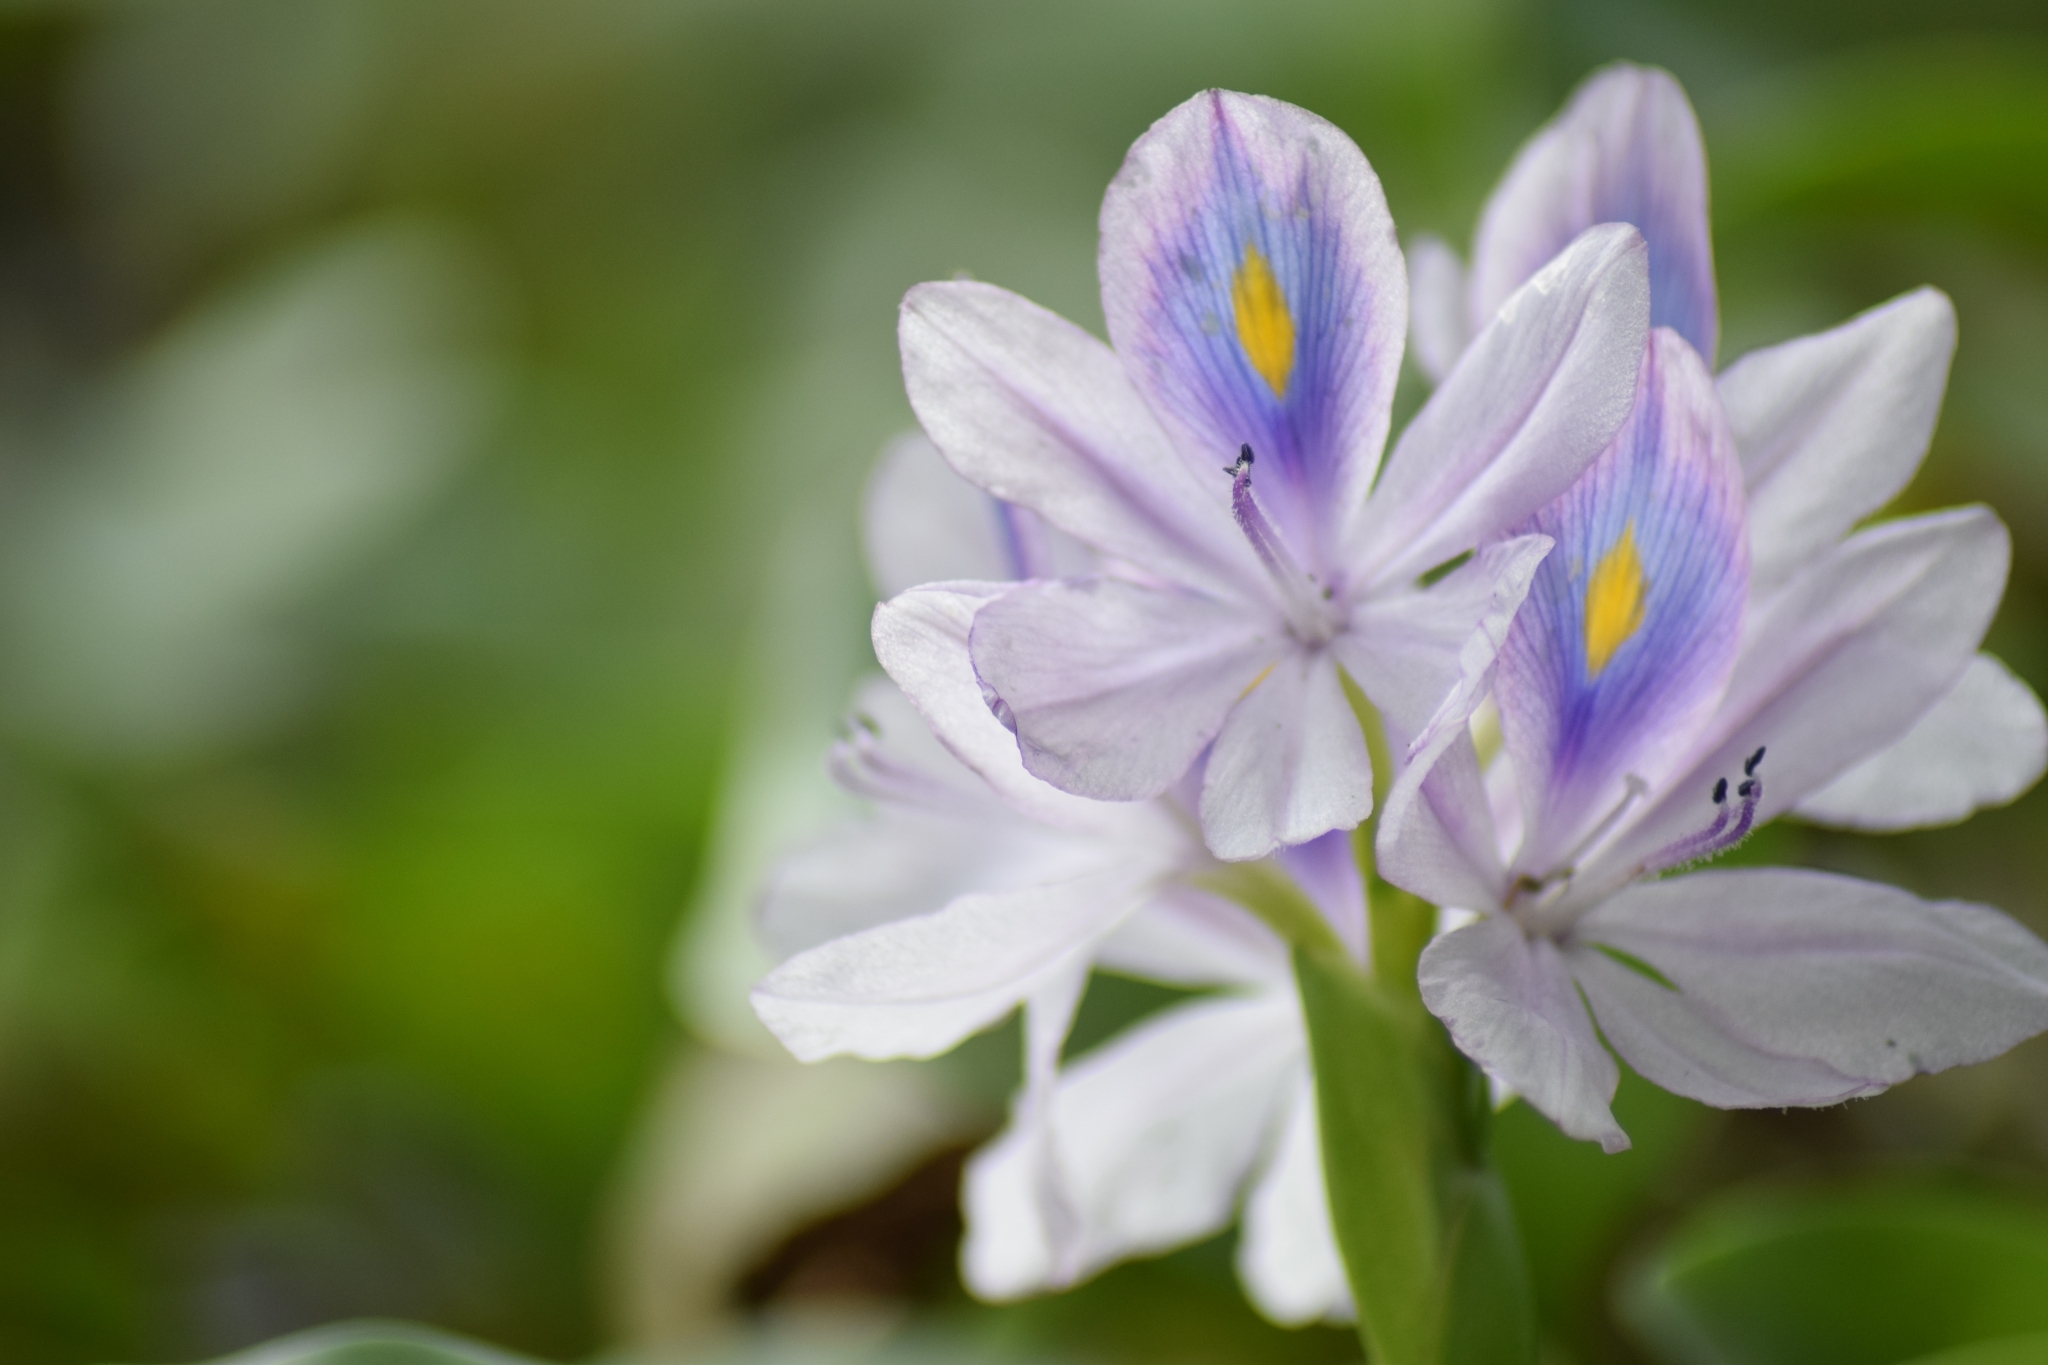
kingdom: Plantae
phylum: Tracheophyta
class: Liliopsida
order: Commelinales
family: Pontederiaceae
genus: Pontederia
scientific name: Pontederia crassipes
